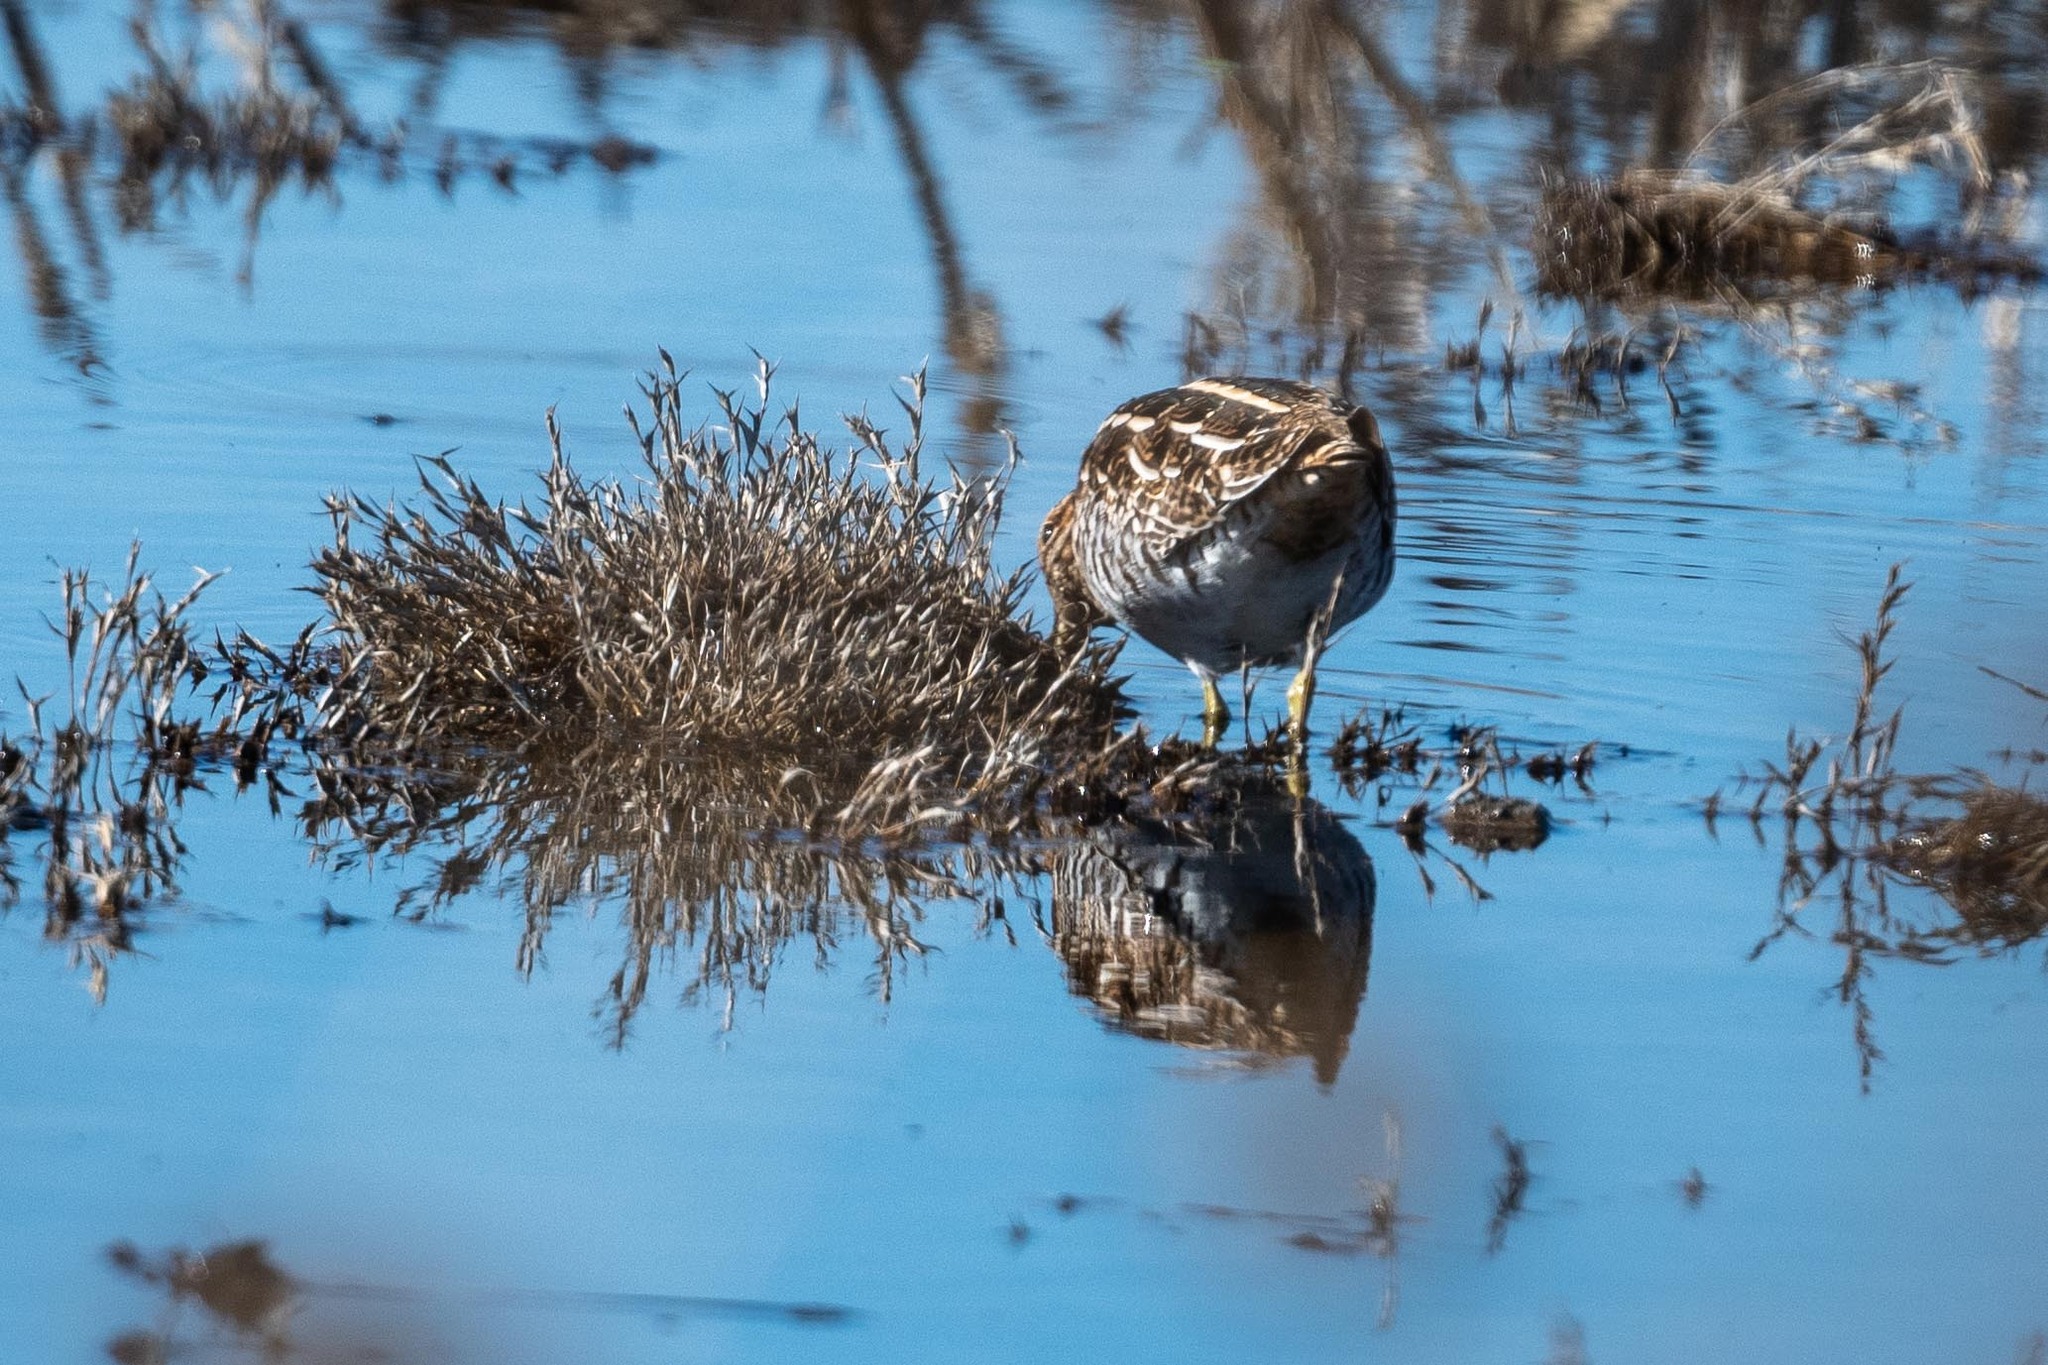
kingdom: Animalia
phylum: Chordata
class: Aves
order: Charadriiformes
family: Scolopacidae
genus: Gallinago
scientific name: Gallinago delicata
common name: Wilson's snipe
